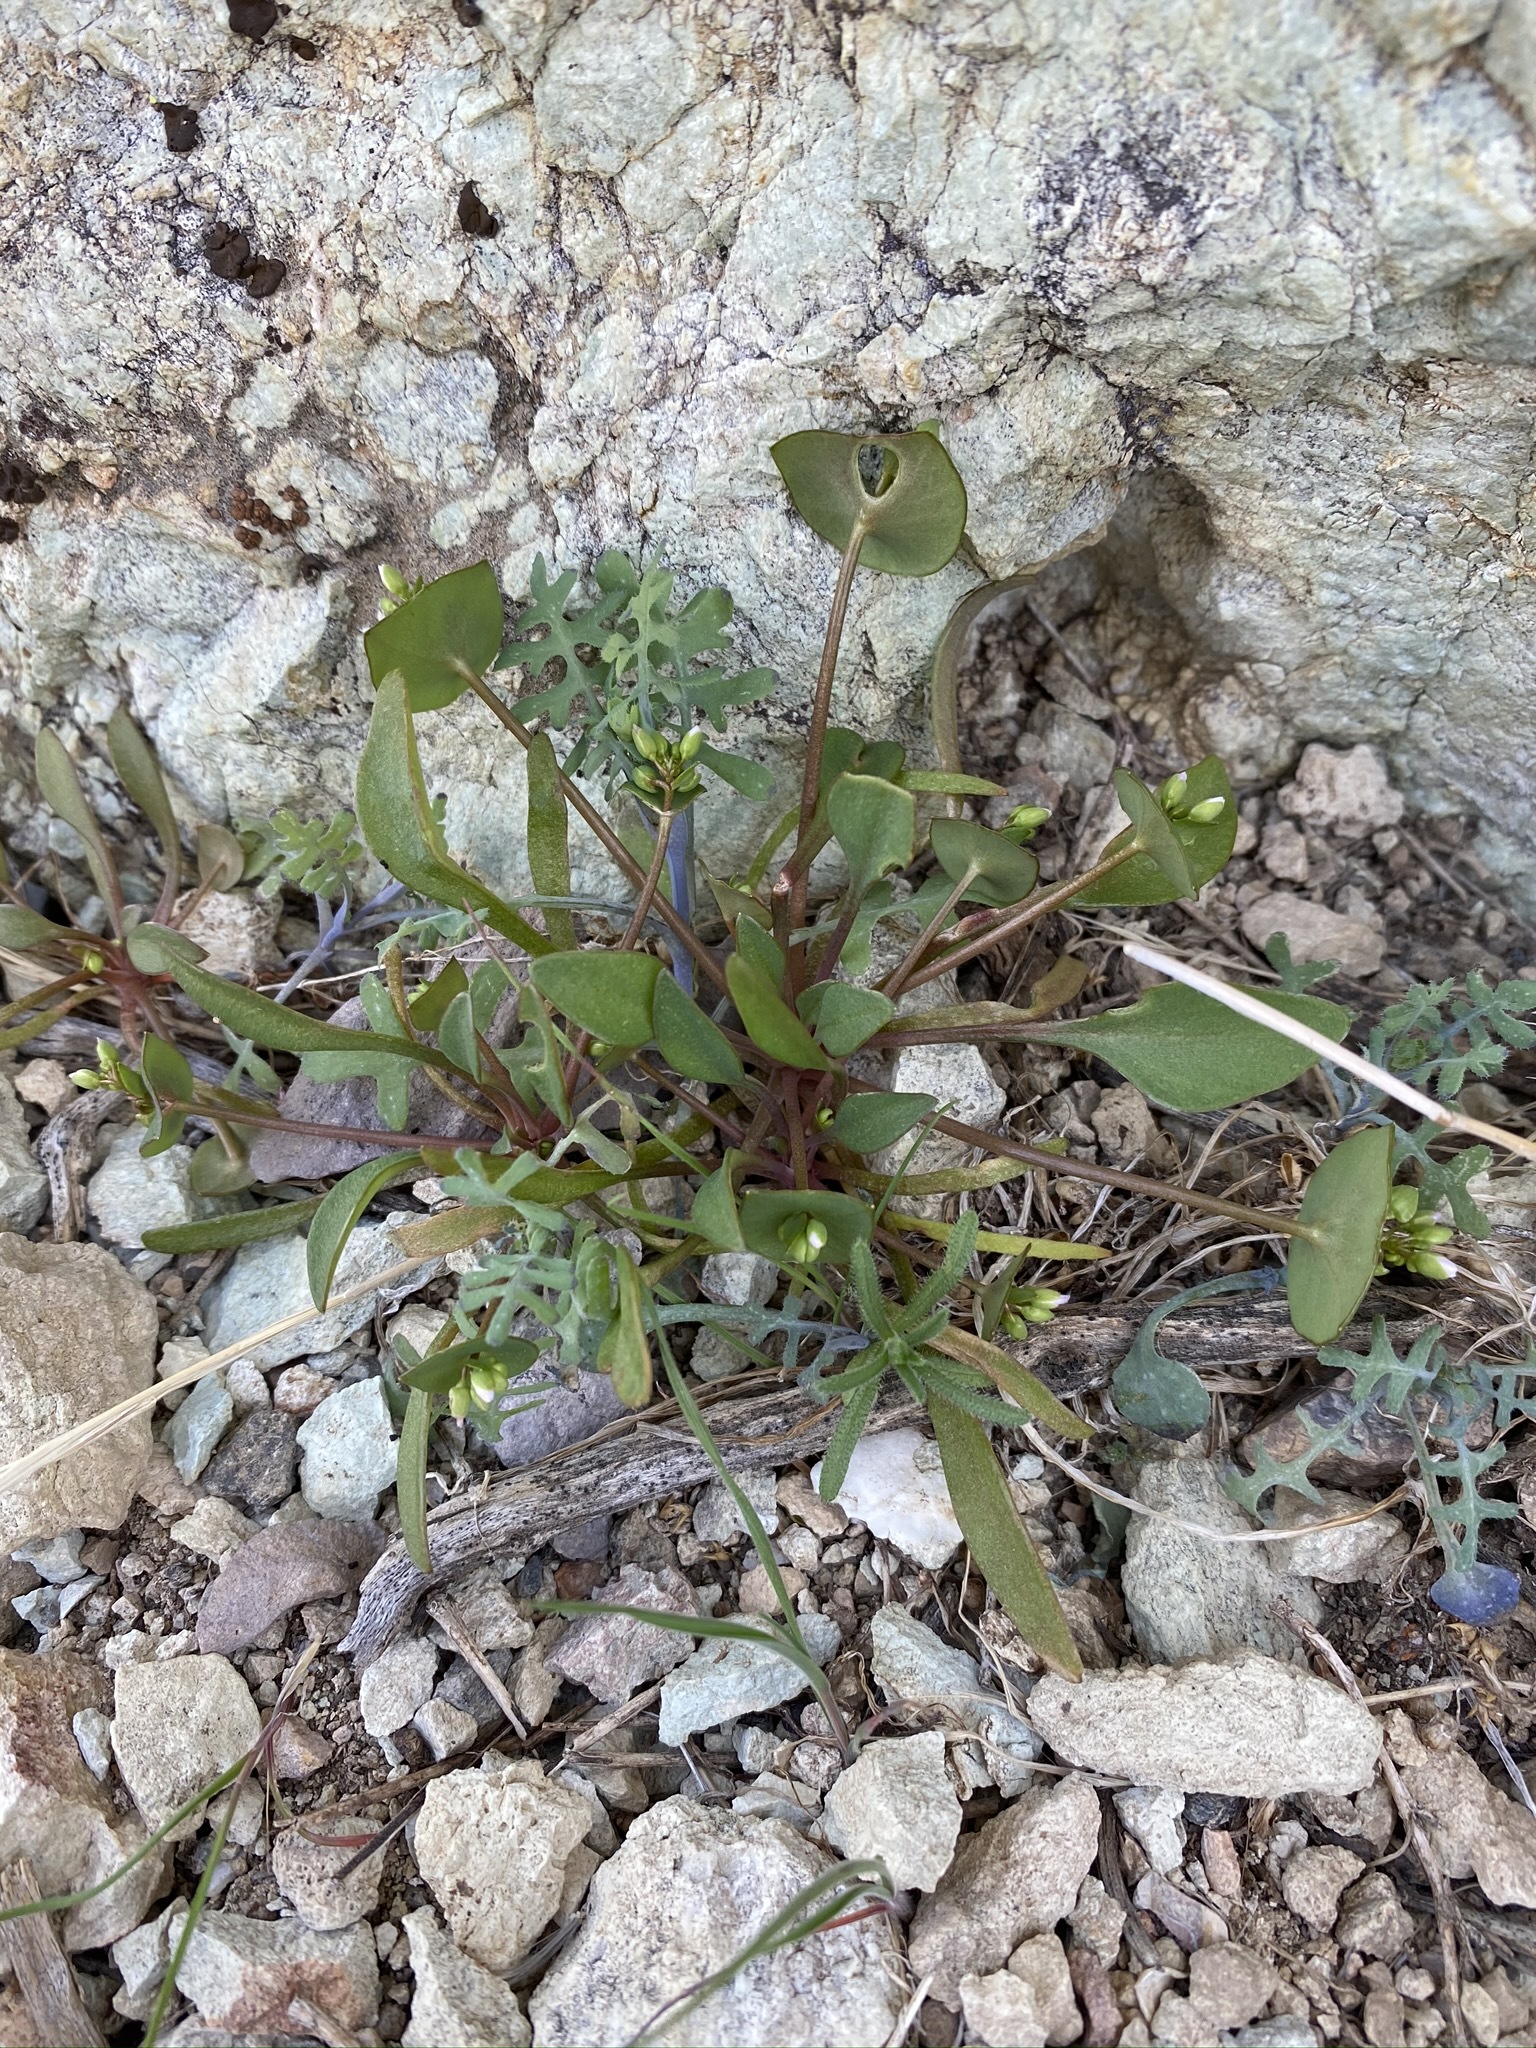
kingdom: Plantae
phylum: Tracheophyta
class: Magnoliopsida
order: Caryophyllales
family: Montiaceae
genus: Claytonia
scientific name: Claytonia perfoliata
